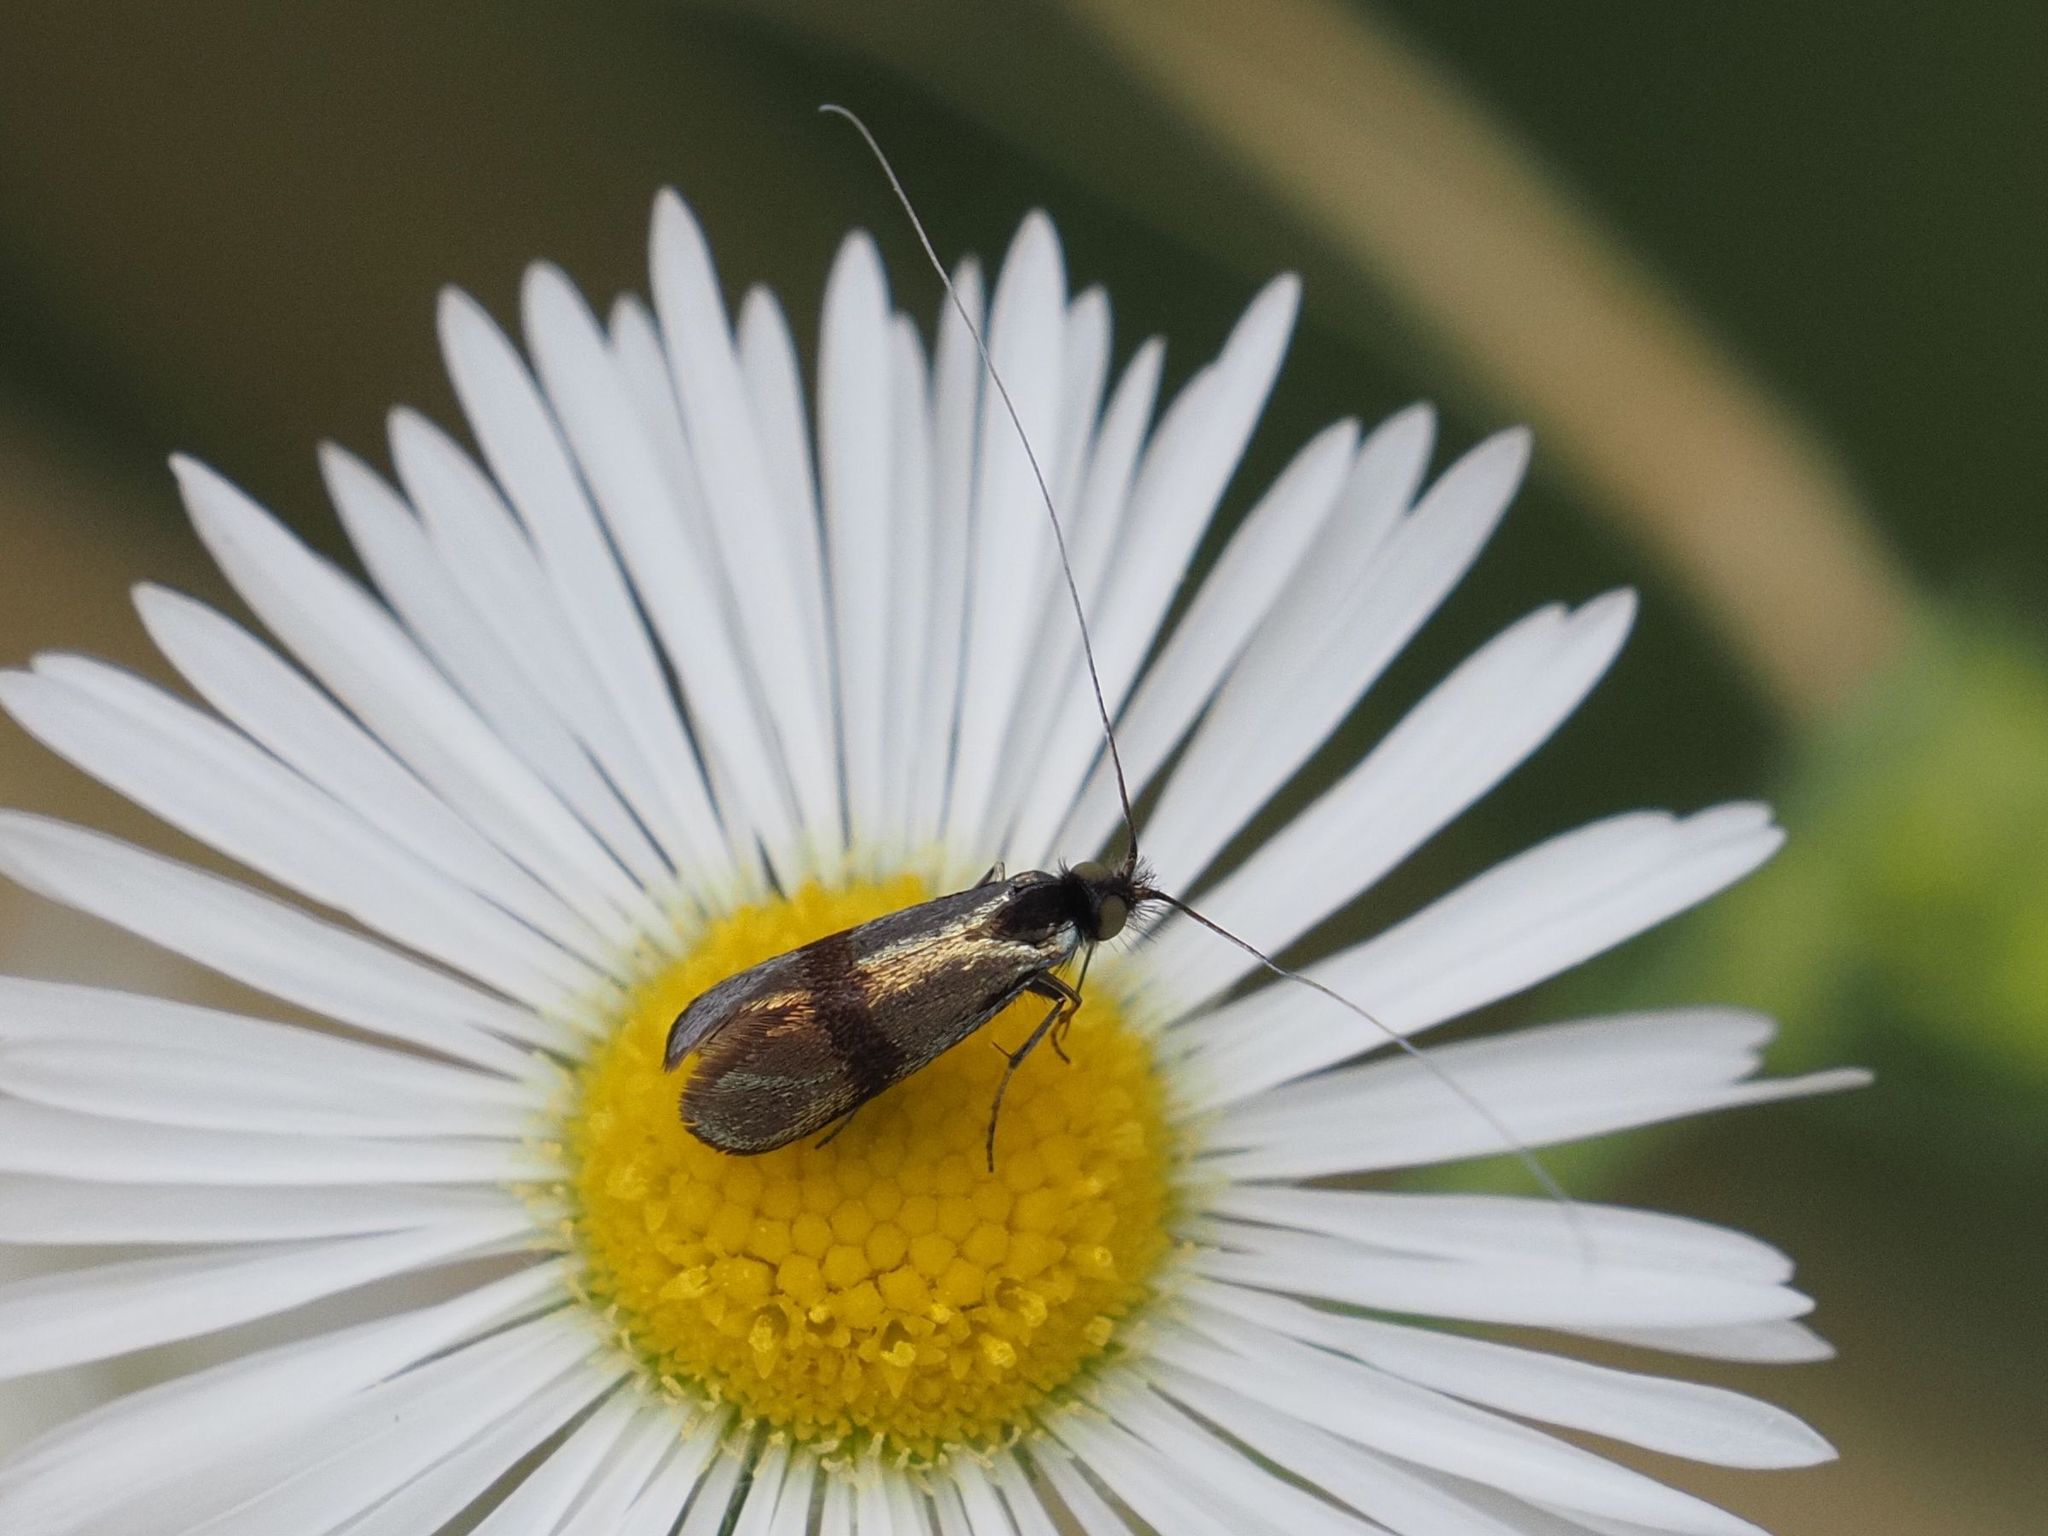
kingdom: Animalia
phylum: Arthropoda
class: Insecta
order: Lepidoptera
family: Adelidae
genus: Nemophora
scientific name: Nemophora minimella
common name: Small long-horn
